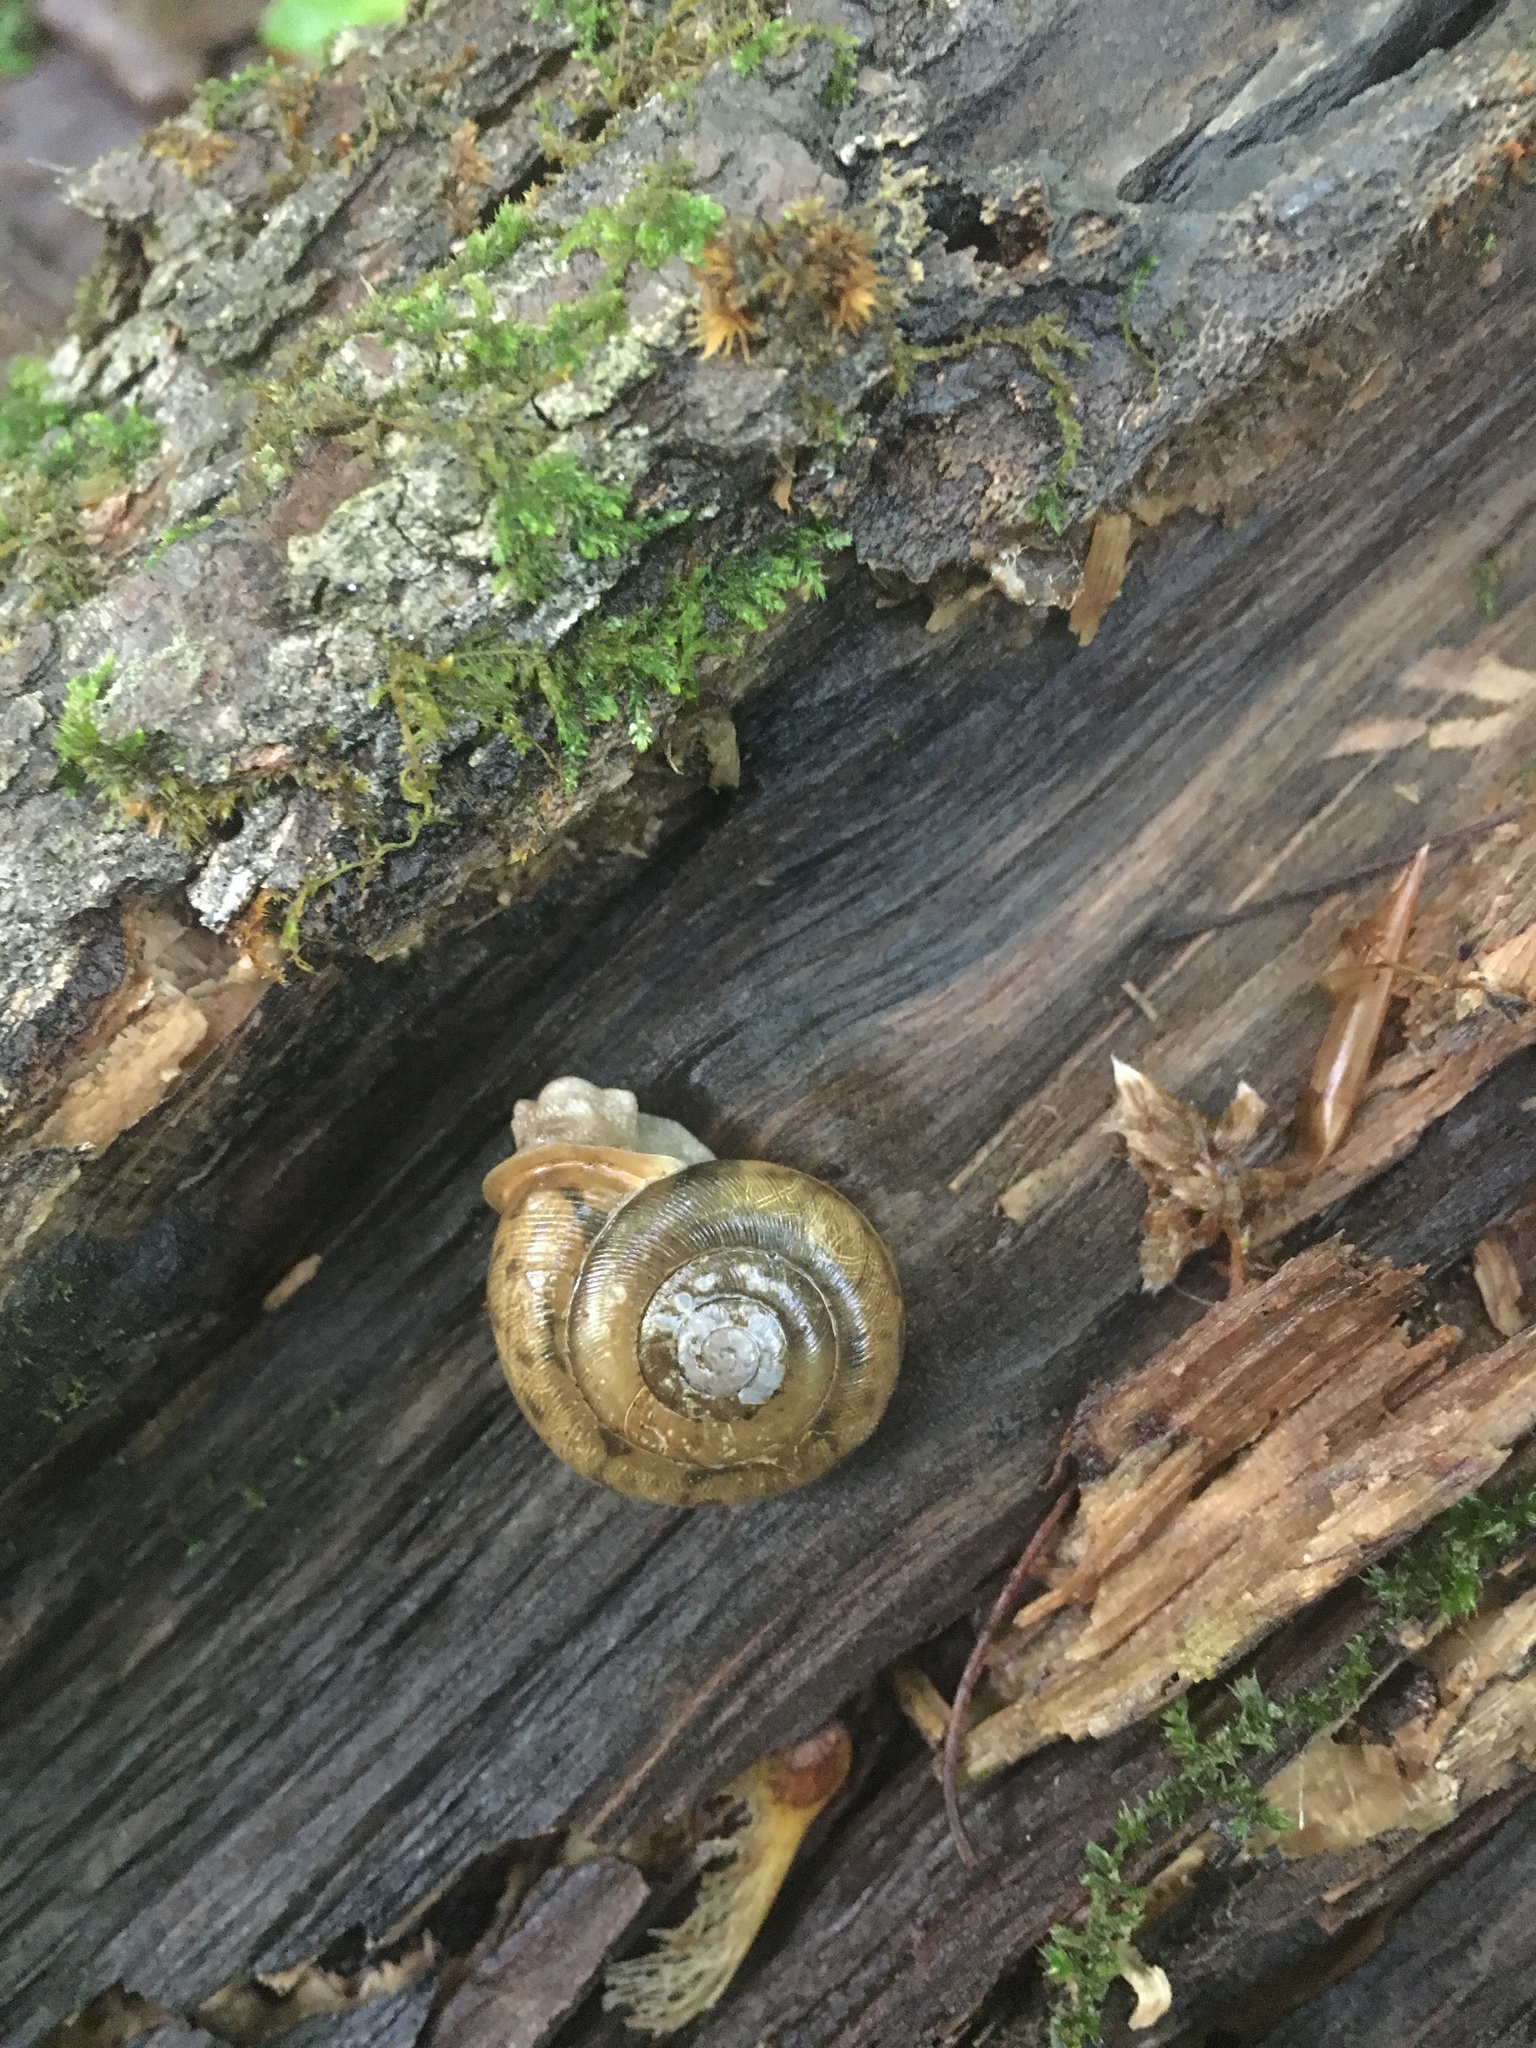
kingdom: Animalia
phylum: Mollusca
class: Gastropoda
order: Stylommatophora
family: Polygyridae
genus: Neohelix
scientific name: Neohelix albolabris
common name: Eastern whitelip
